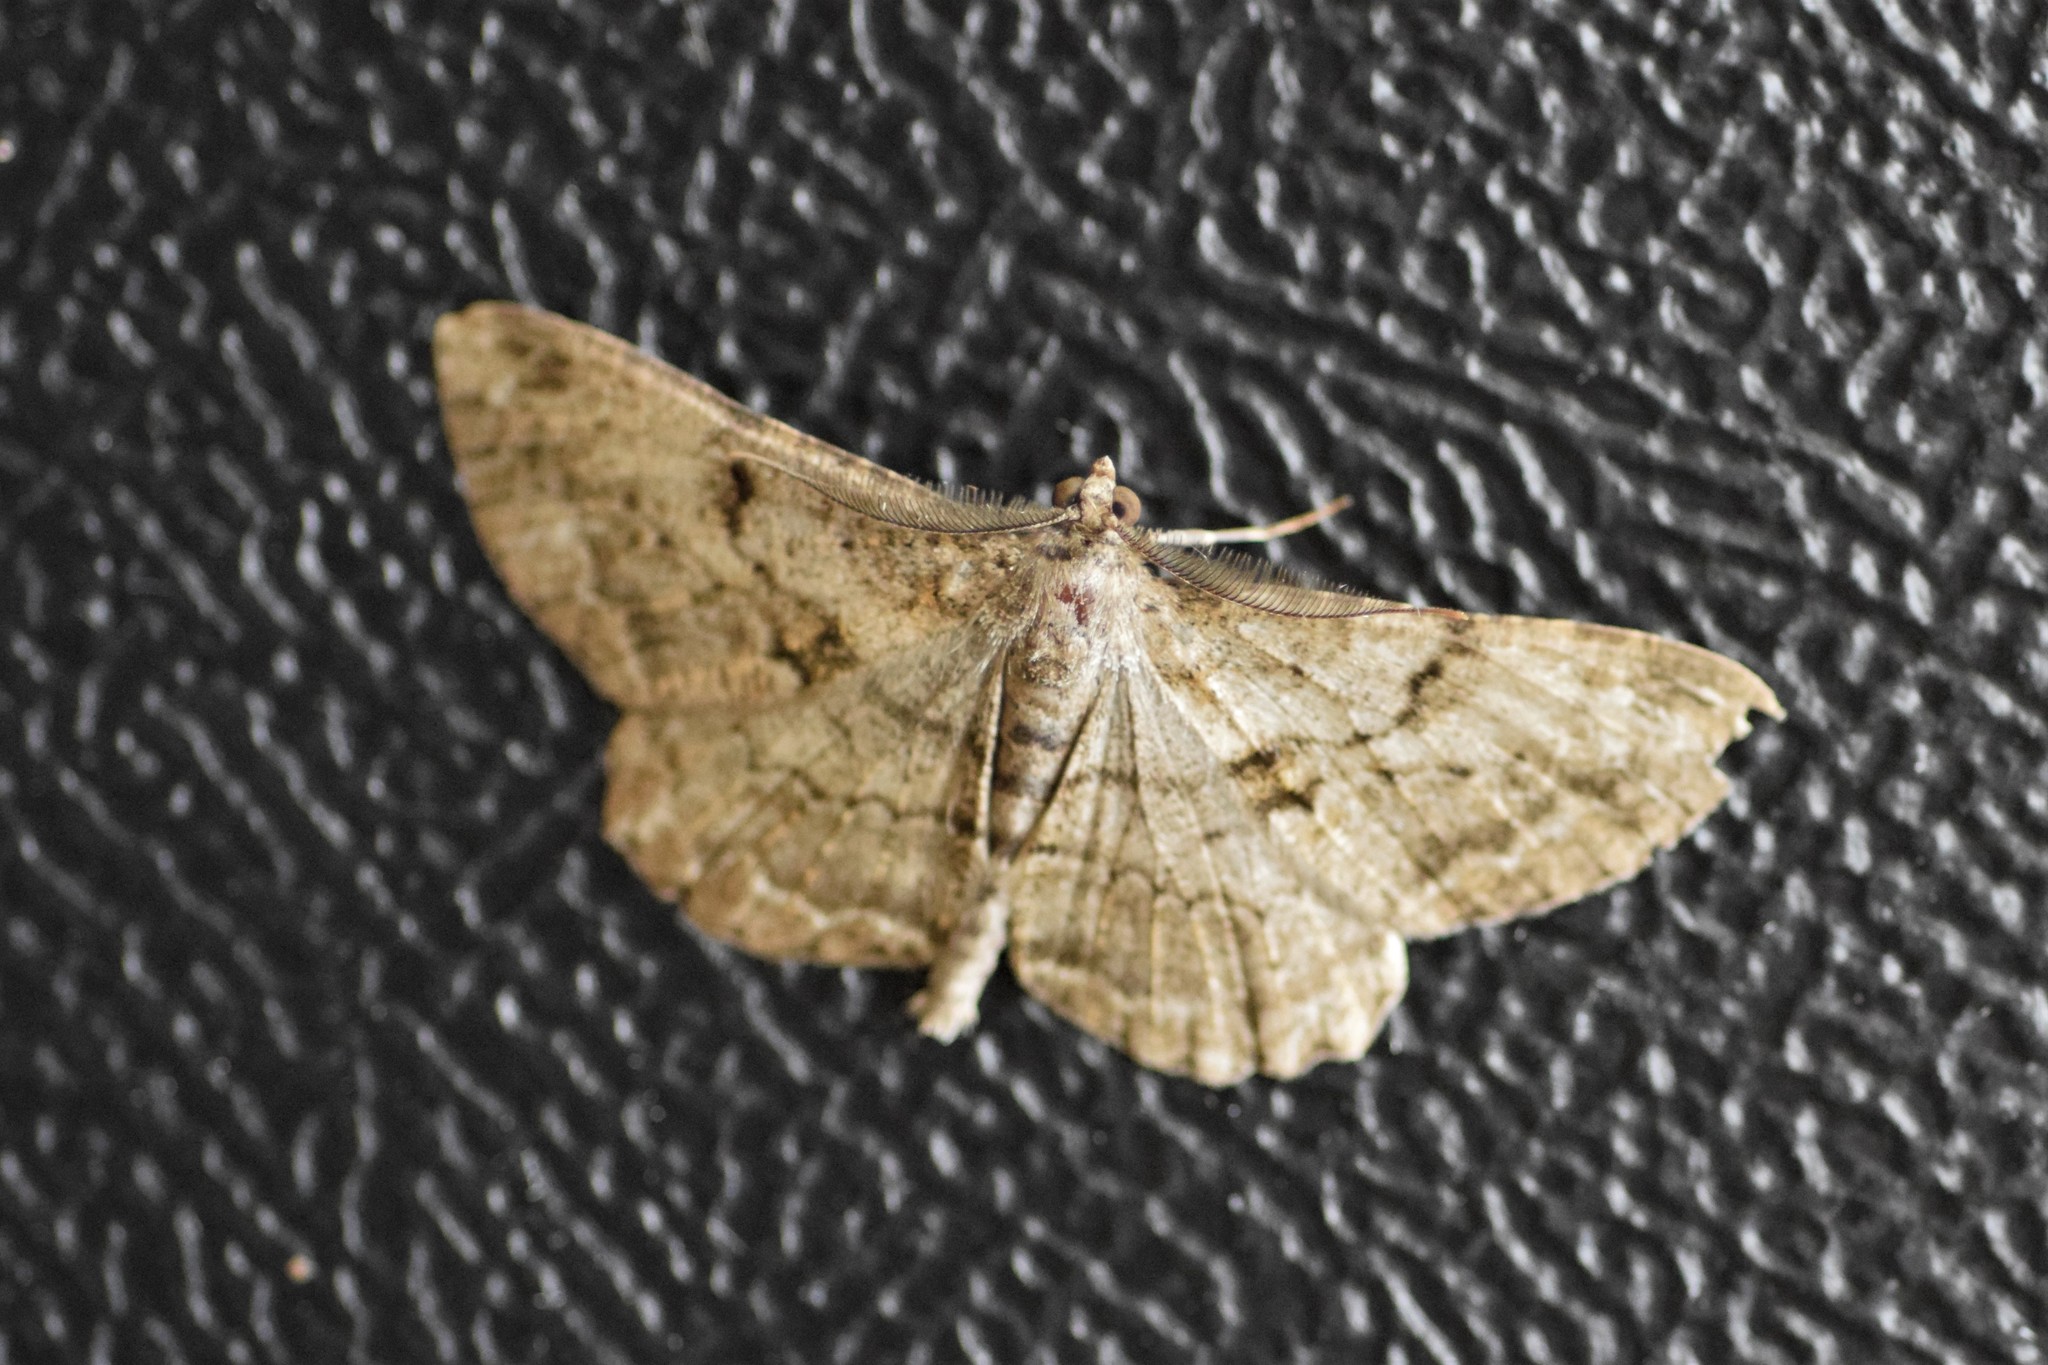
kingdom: Animalia
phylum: Arthropoda
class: Insecta
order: Lepidoptera
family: Geometridae
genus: Peribatodes
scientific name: Peribatodes rhomboidaria
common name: Willow beauty
